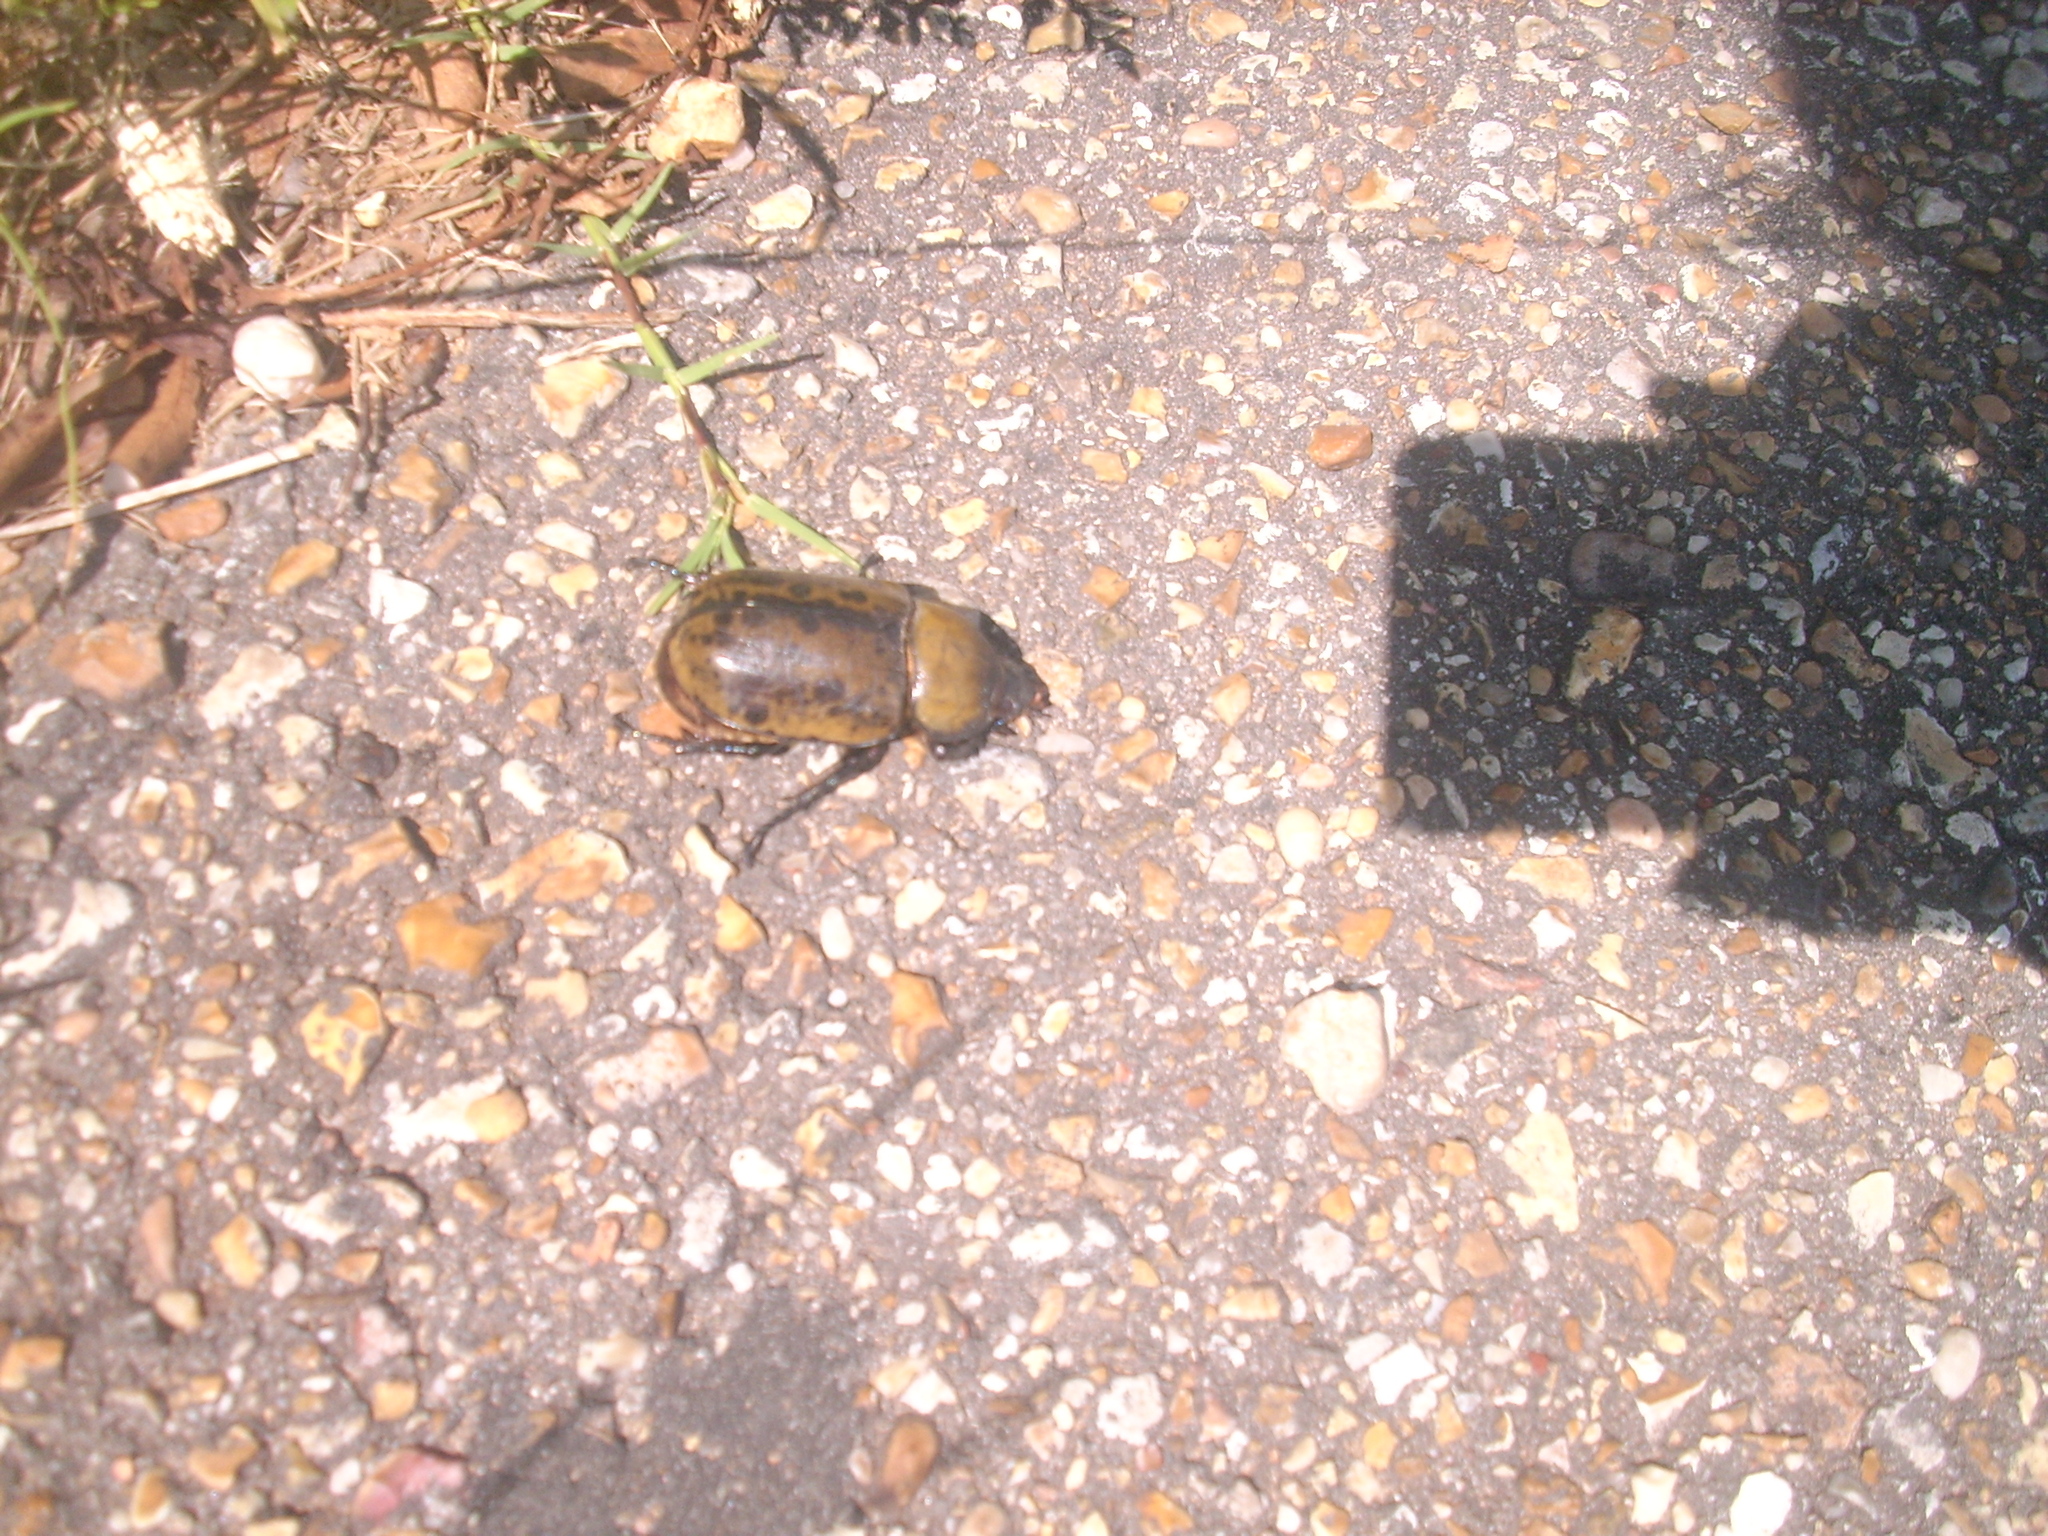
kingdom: Animalia
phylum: Arthropoda
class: Insecta
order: Coleoptera
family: Scarabaeidae
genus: Dynastes
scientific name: Dynastes tityus
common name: Eastern hercules beetle
